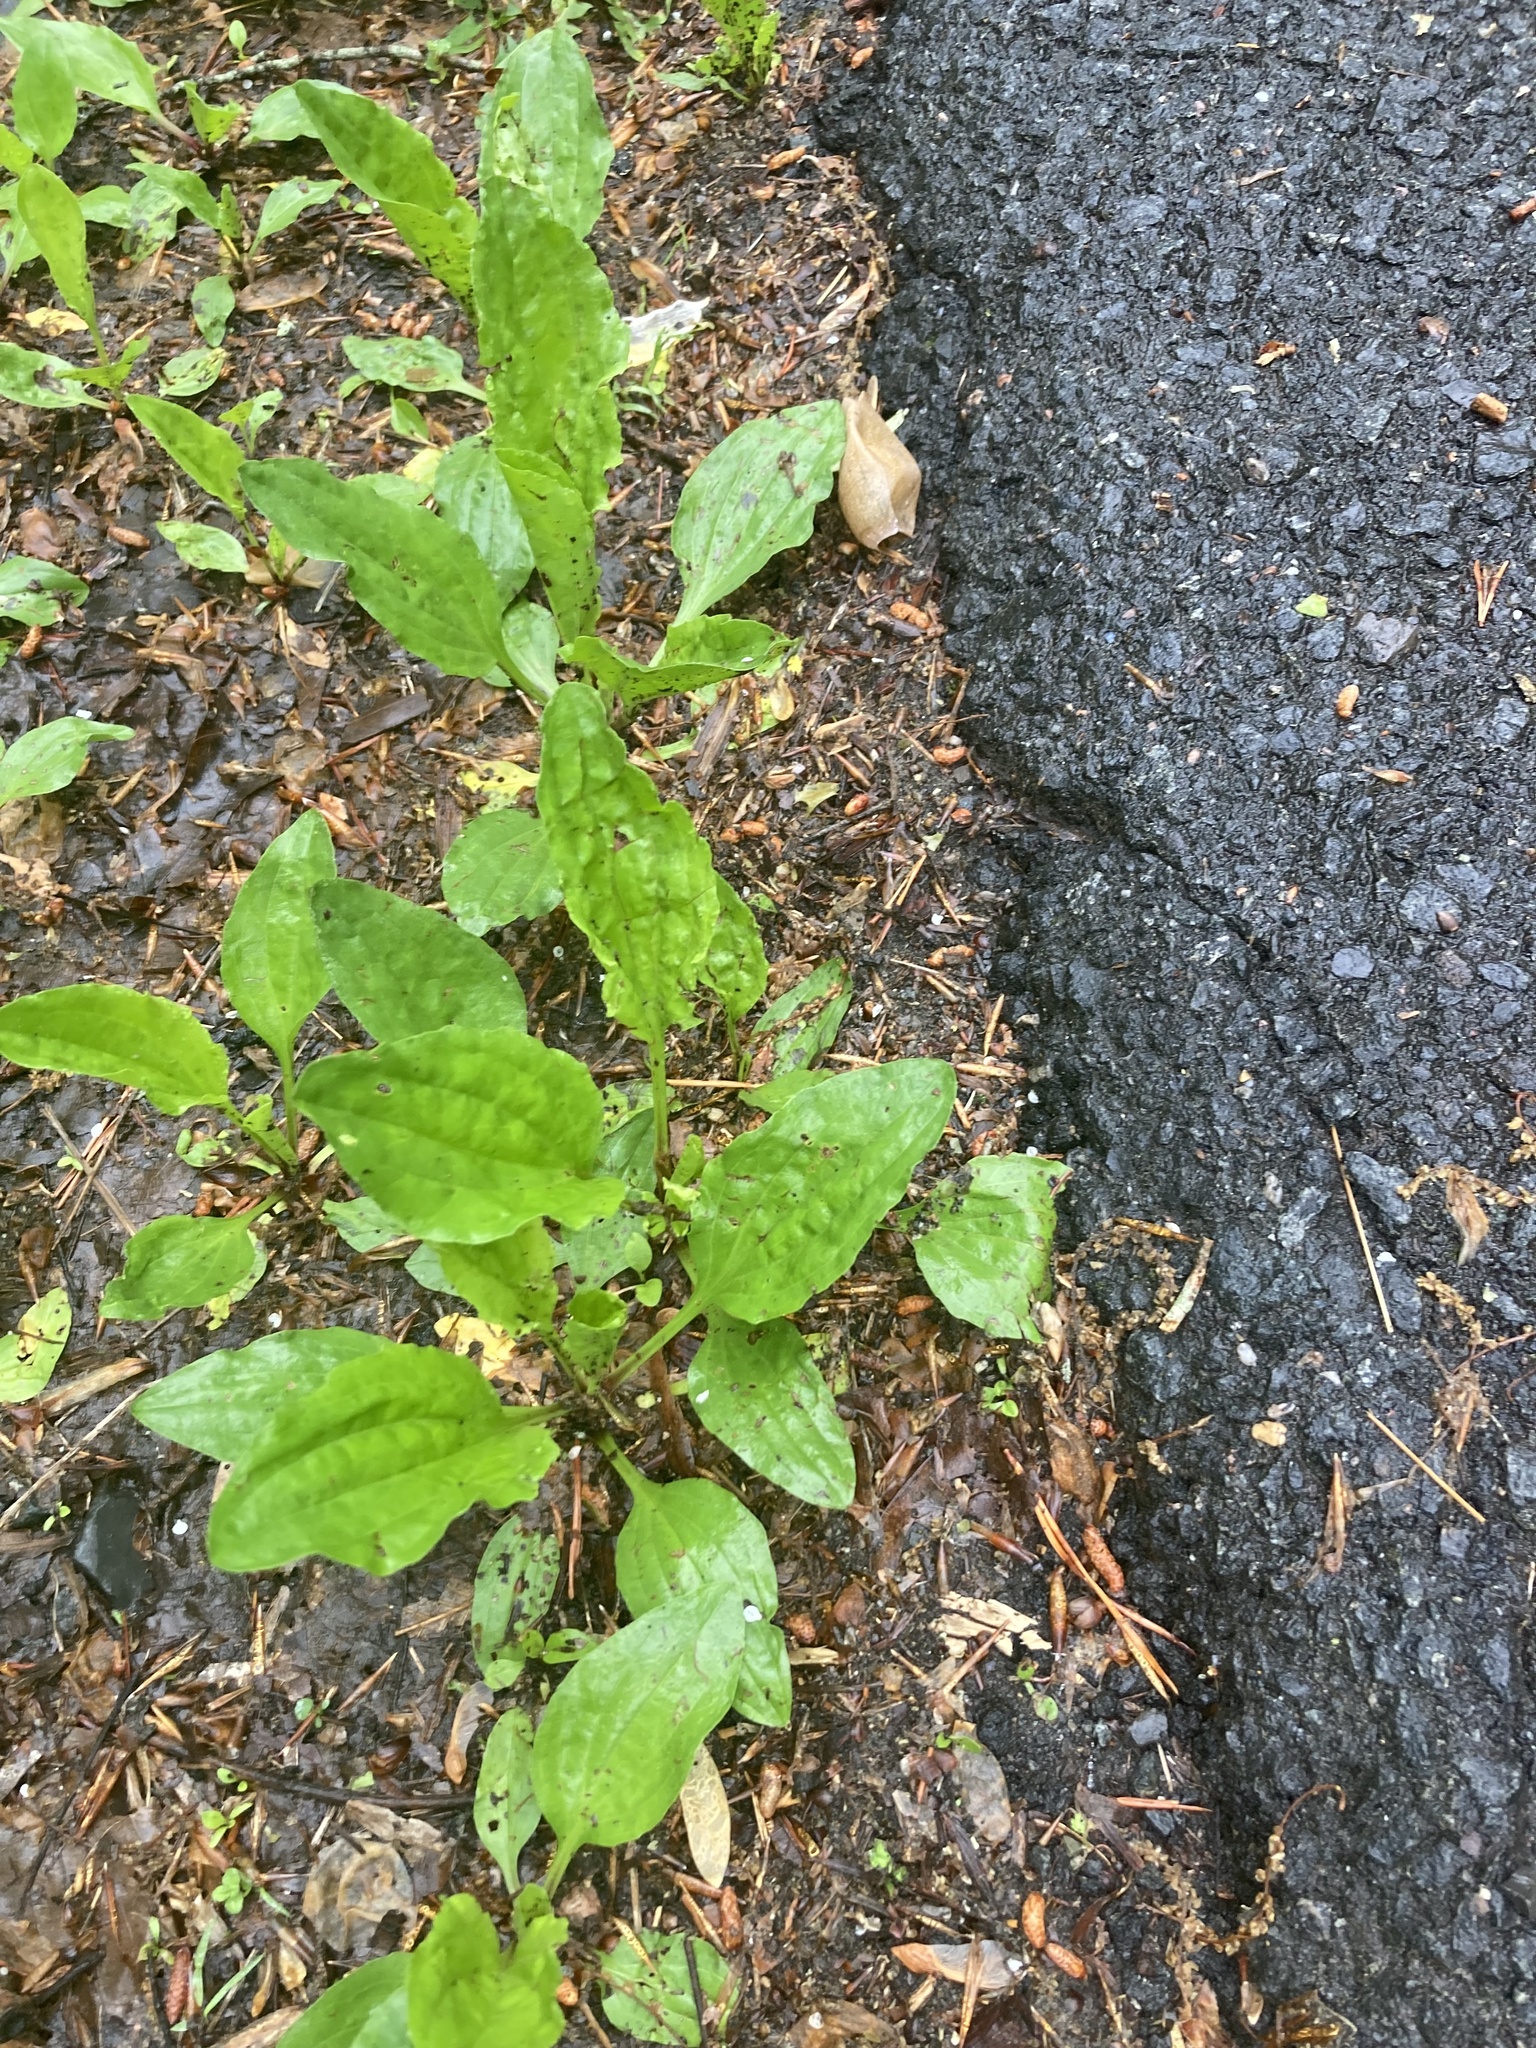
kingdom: Plantae
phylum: Tracheophyta
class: Magnoliopsida
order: Lamiales
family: Plantaginaceae
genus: Plantago
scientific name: Plantago rugelii
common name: American plantain
